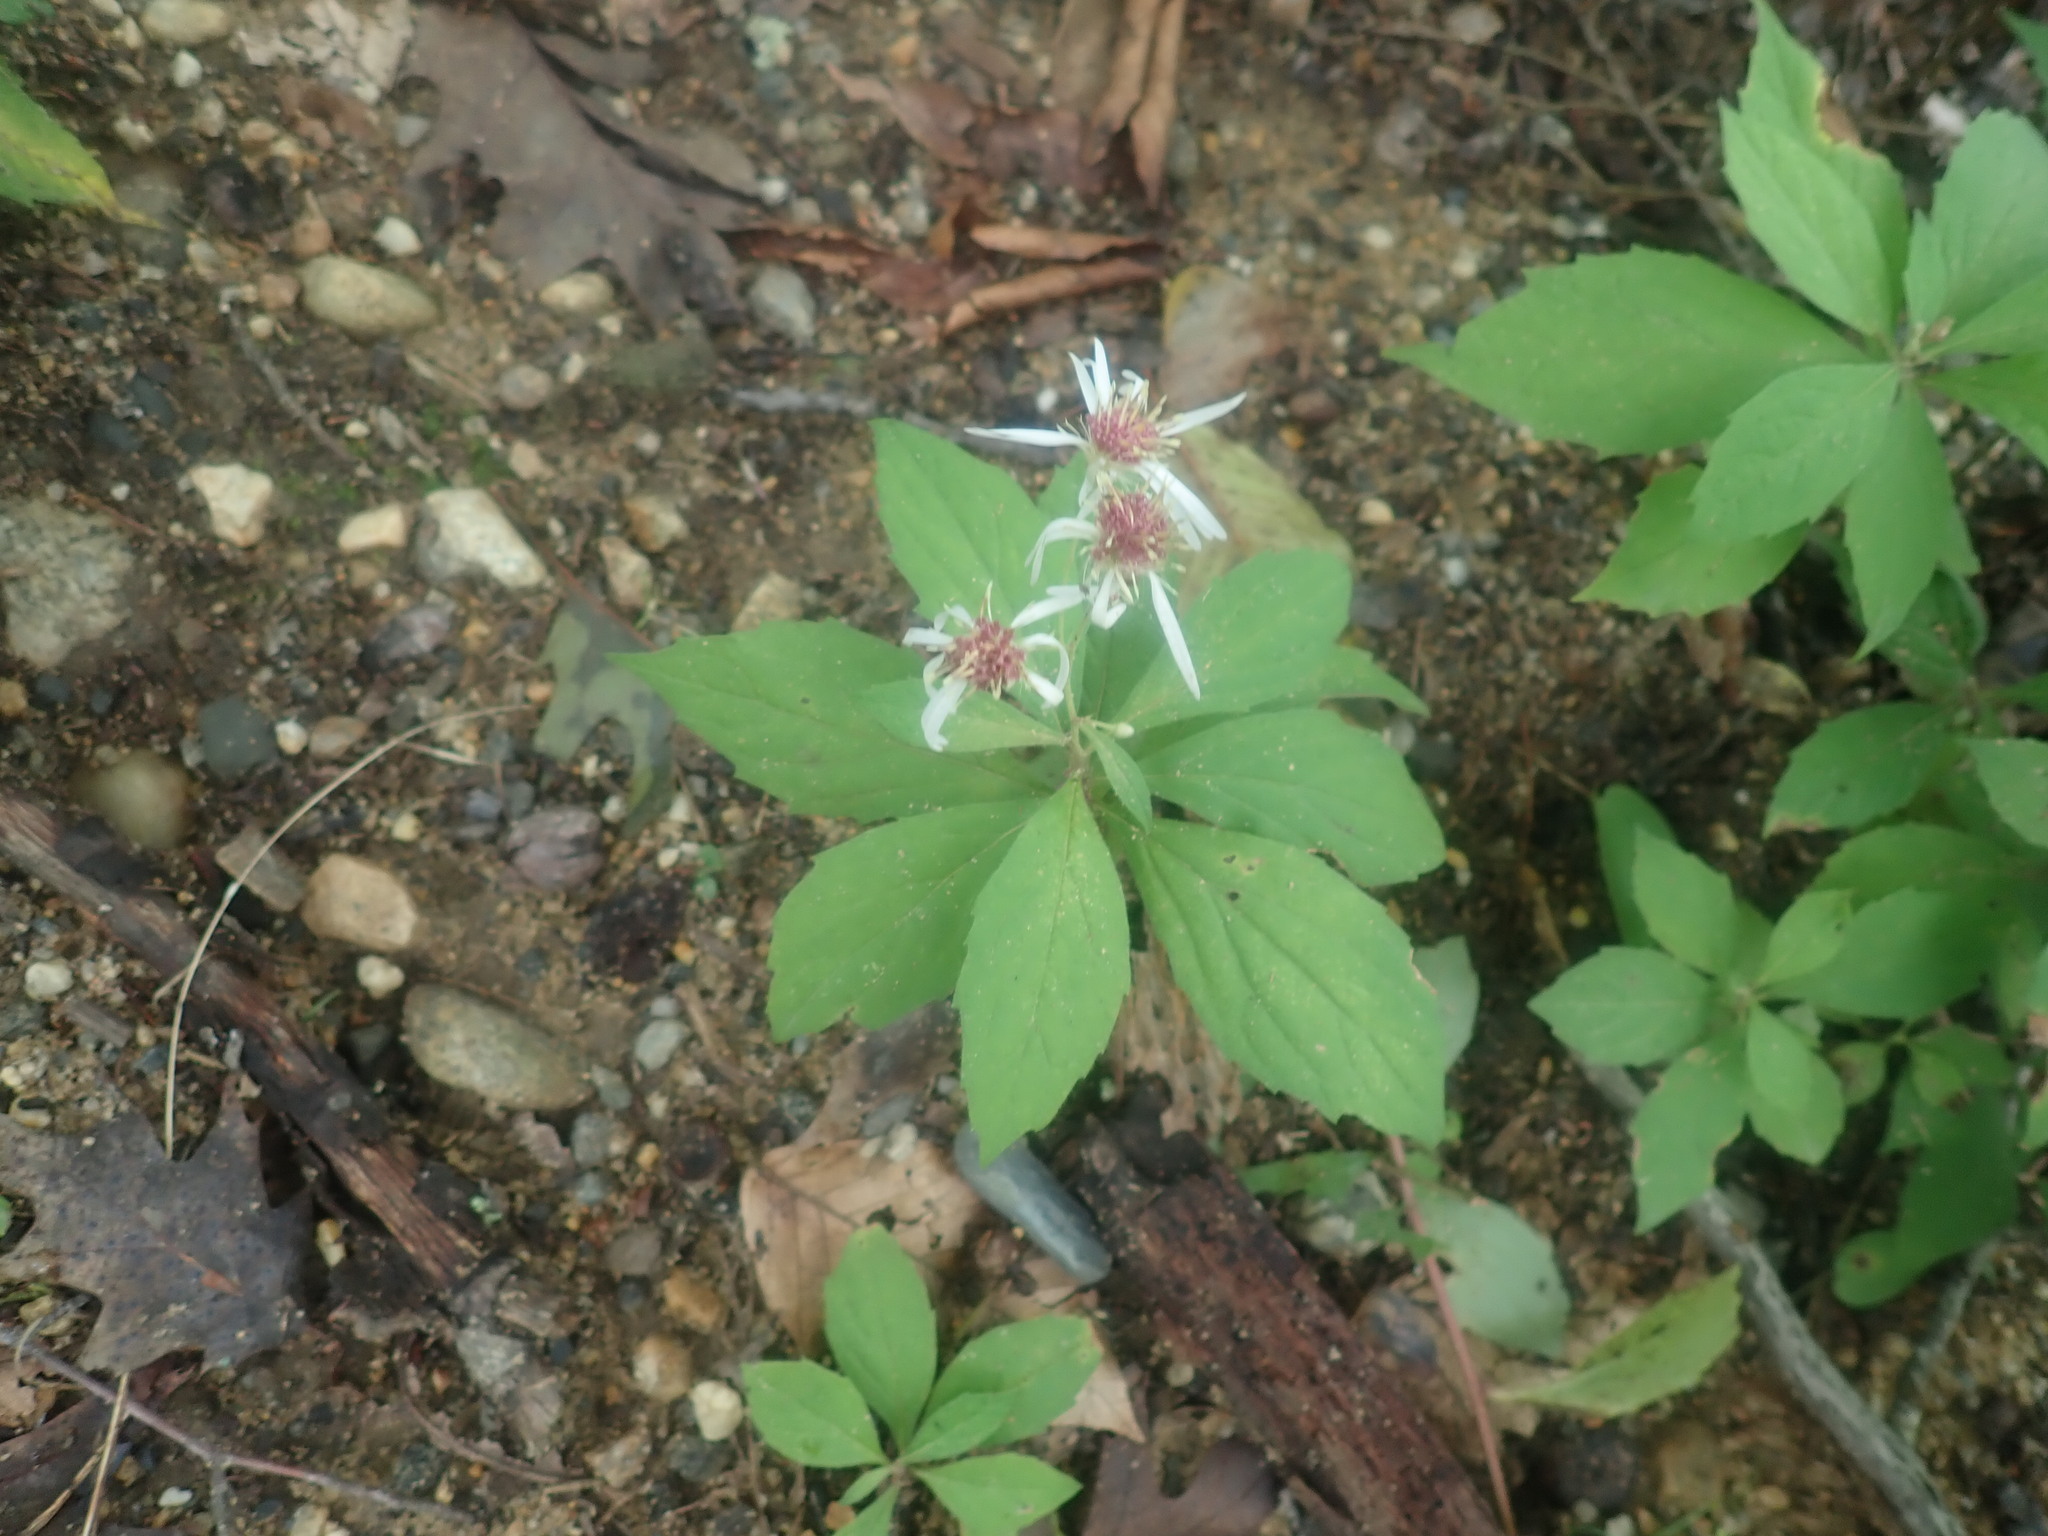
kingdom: Plantae
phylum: Tracheophyta
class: Magnoliopsida
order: Asterales
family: Asteraceae
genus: Oclemena
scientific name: Oclemena acuminata
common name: Mountain aster
